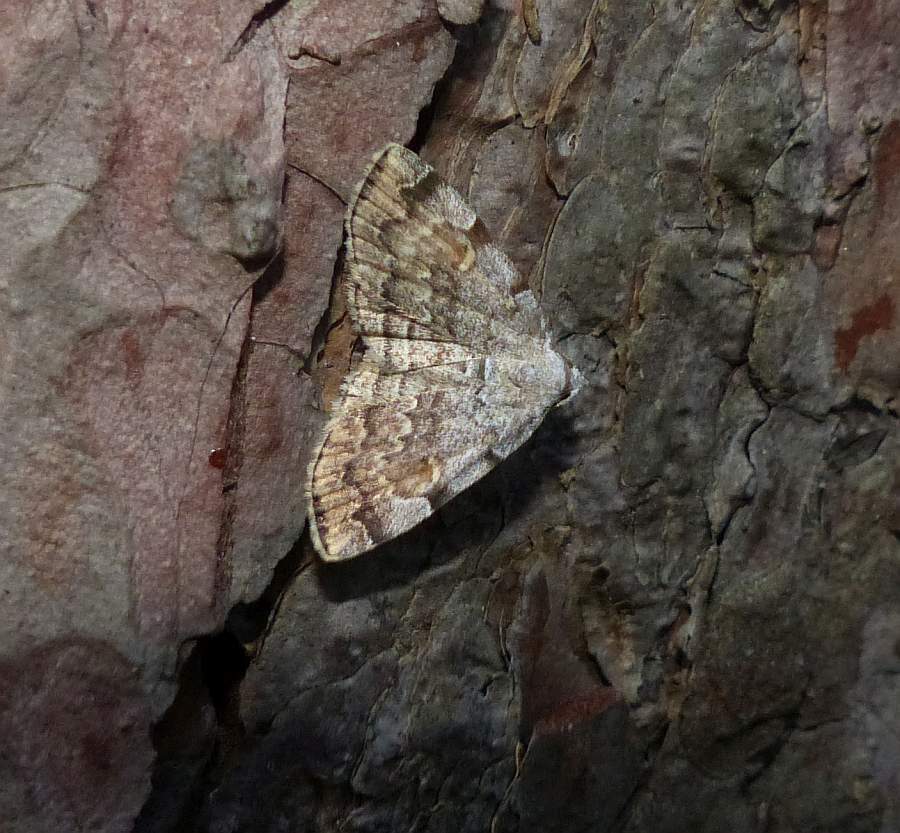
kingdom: Animalia
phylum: Arthropoda
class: Insecta
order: Lepidoptera
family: Erebidae
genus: Idia
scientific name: Idia americalis
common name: American idia moth
